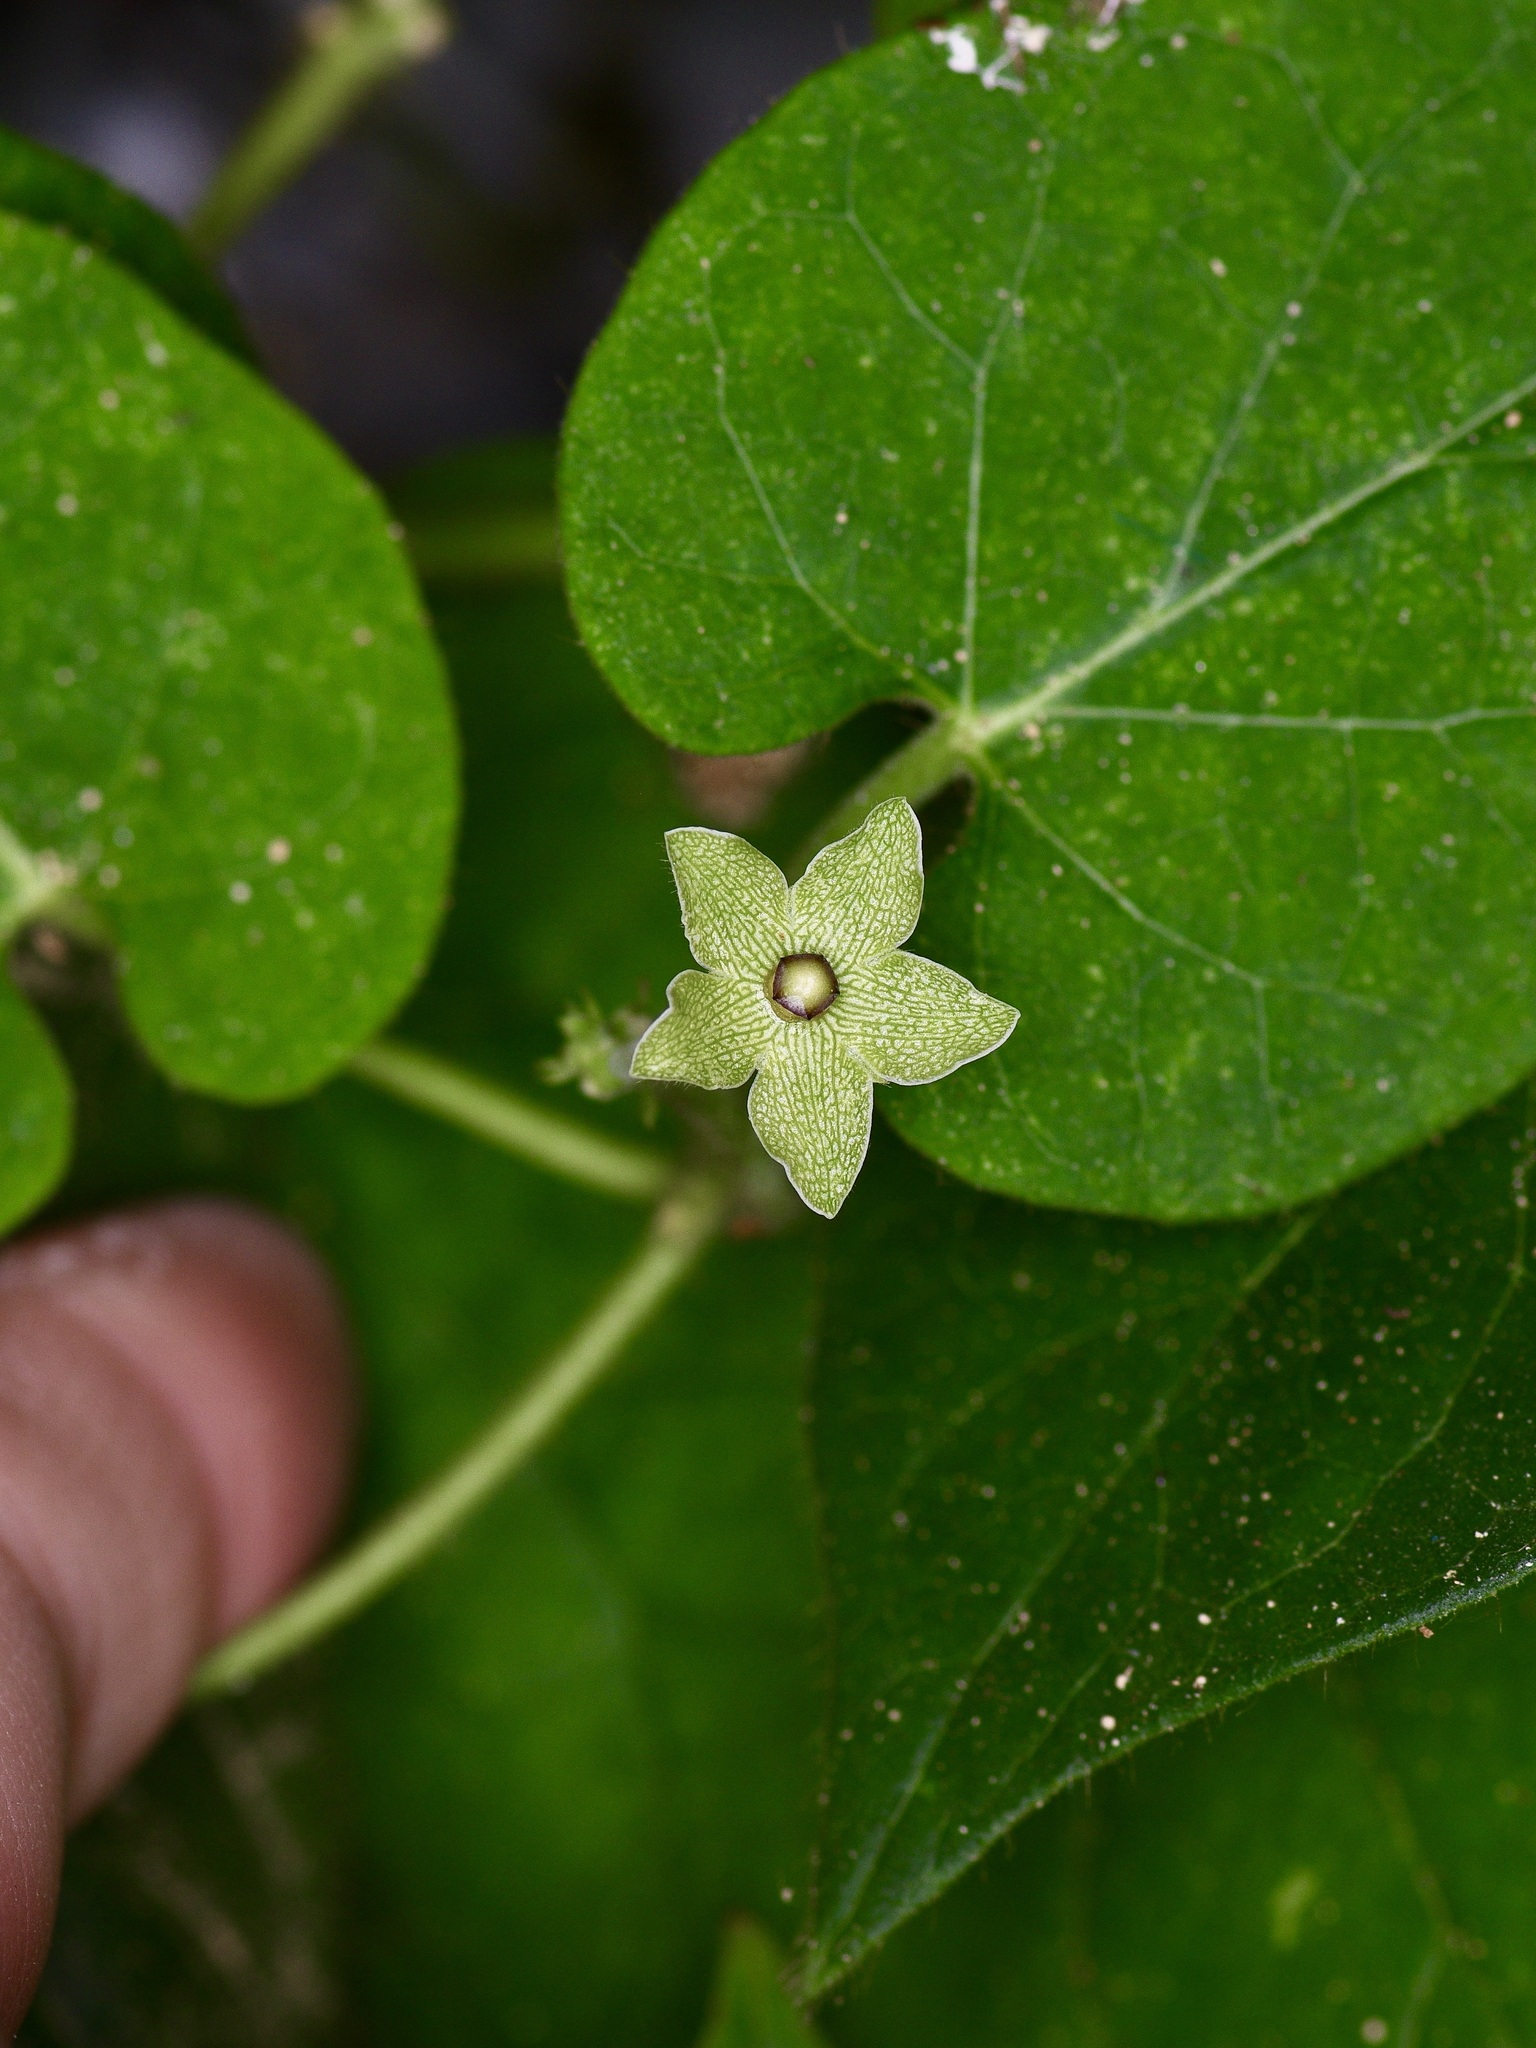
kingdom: Plantae
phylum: Tracheophyta
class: Magnoliopsida
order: Gentianales
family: Apocynaceae
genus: Dictyanthus
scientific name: Dictyanthus reticulatus
